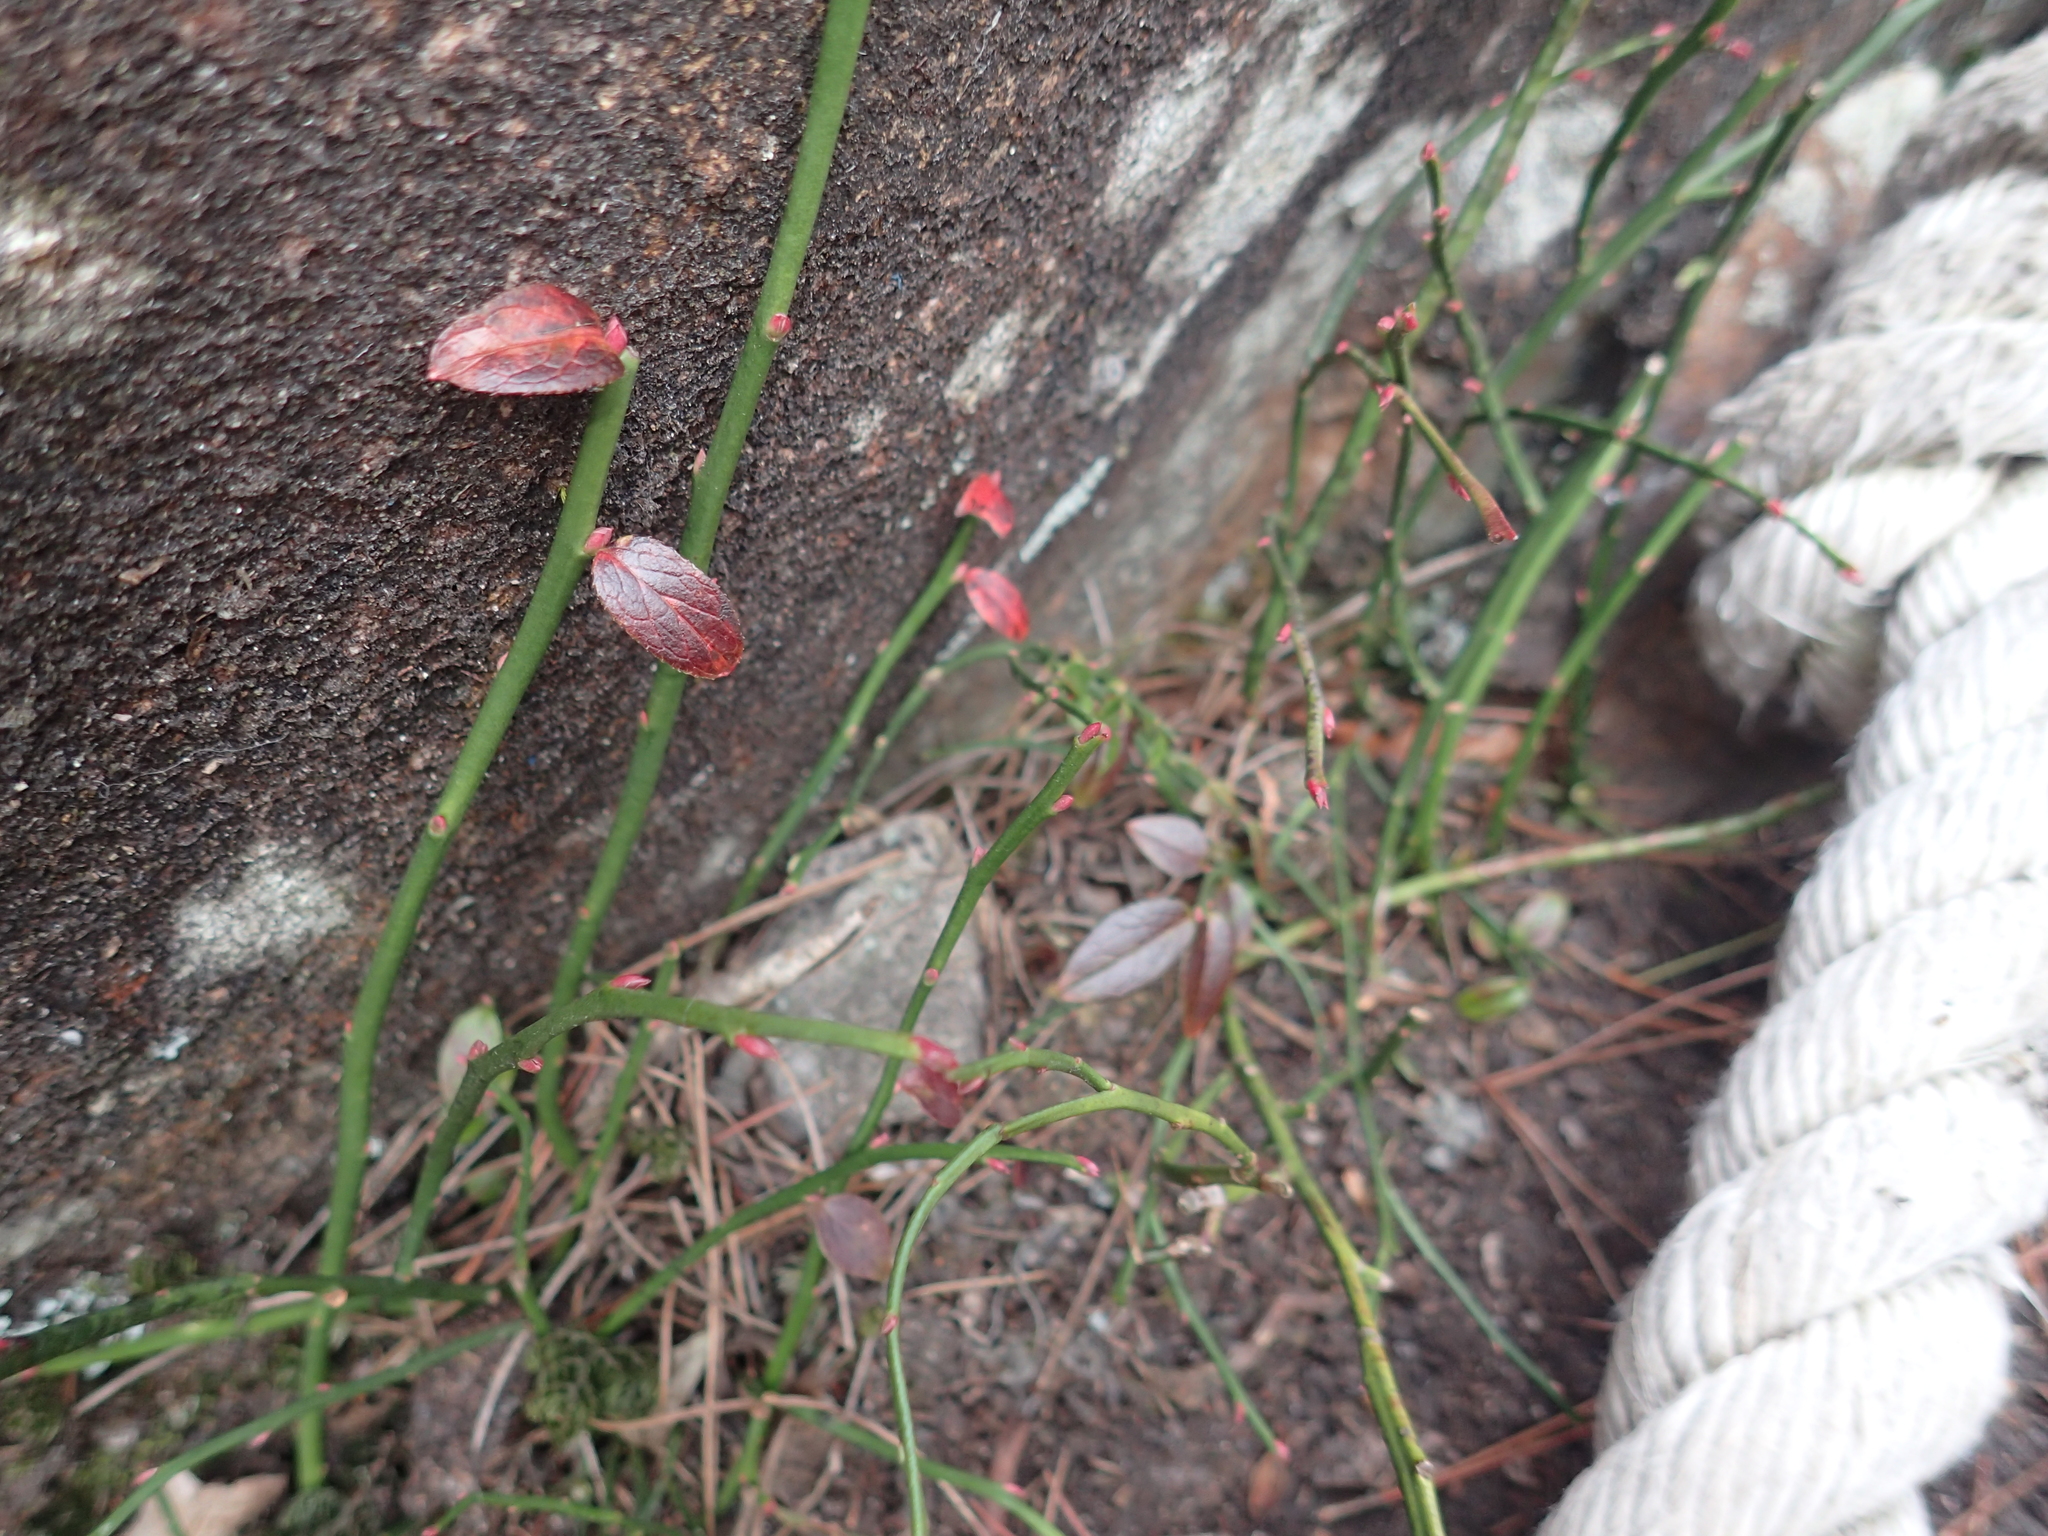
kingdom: Plantae
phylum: Tracheophyta
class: Magnoliopsida
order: Ericales
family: Ericaceae
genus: Vaccinium
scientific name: Vaccinium japonicum
